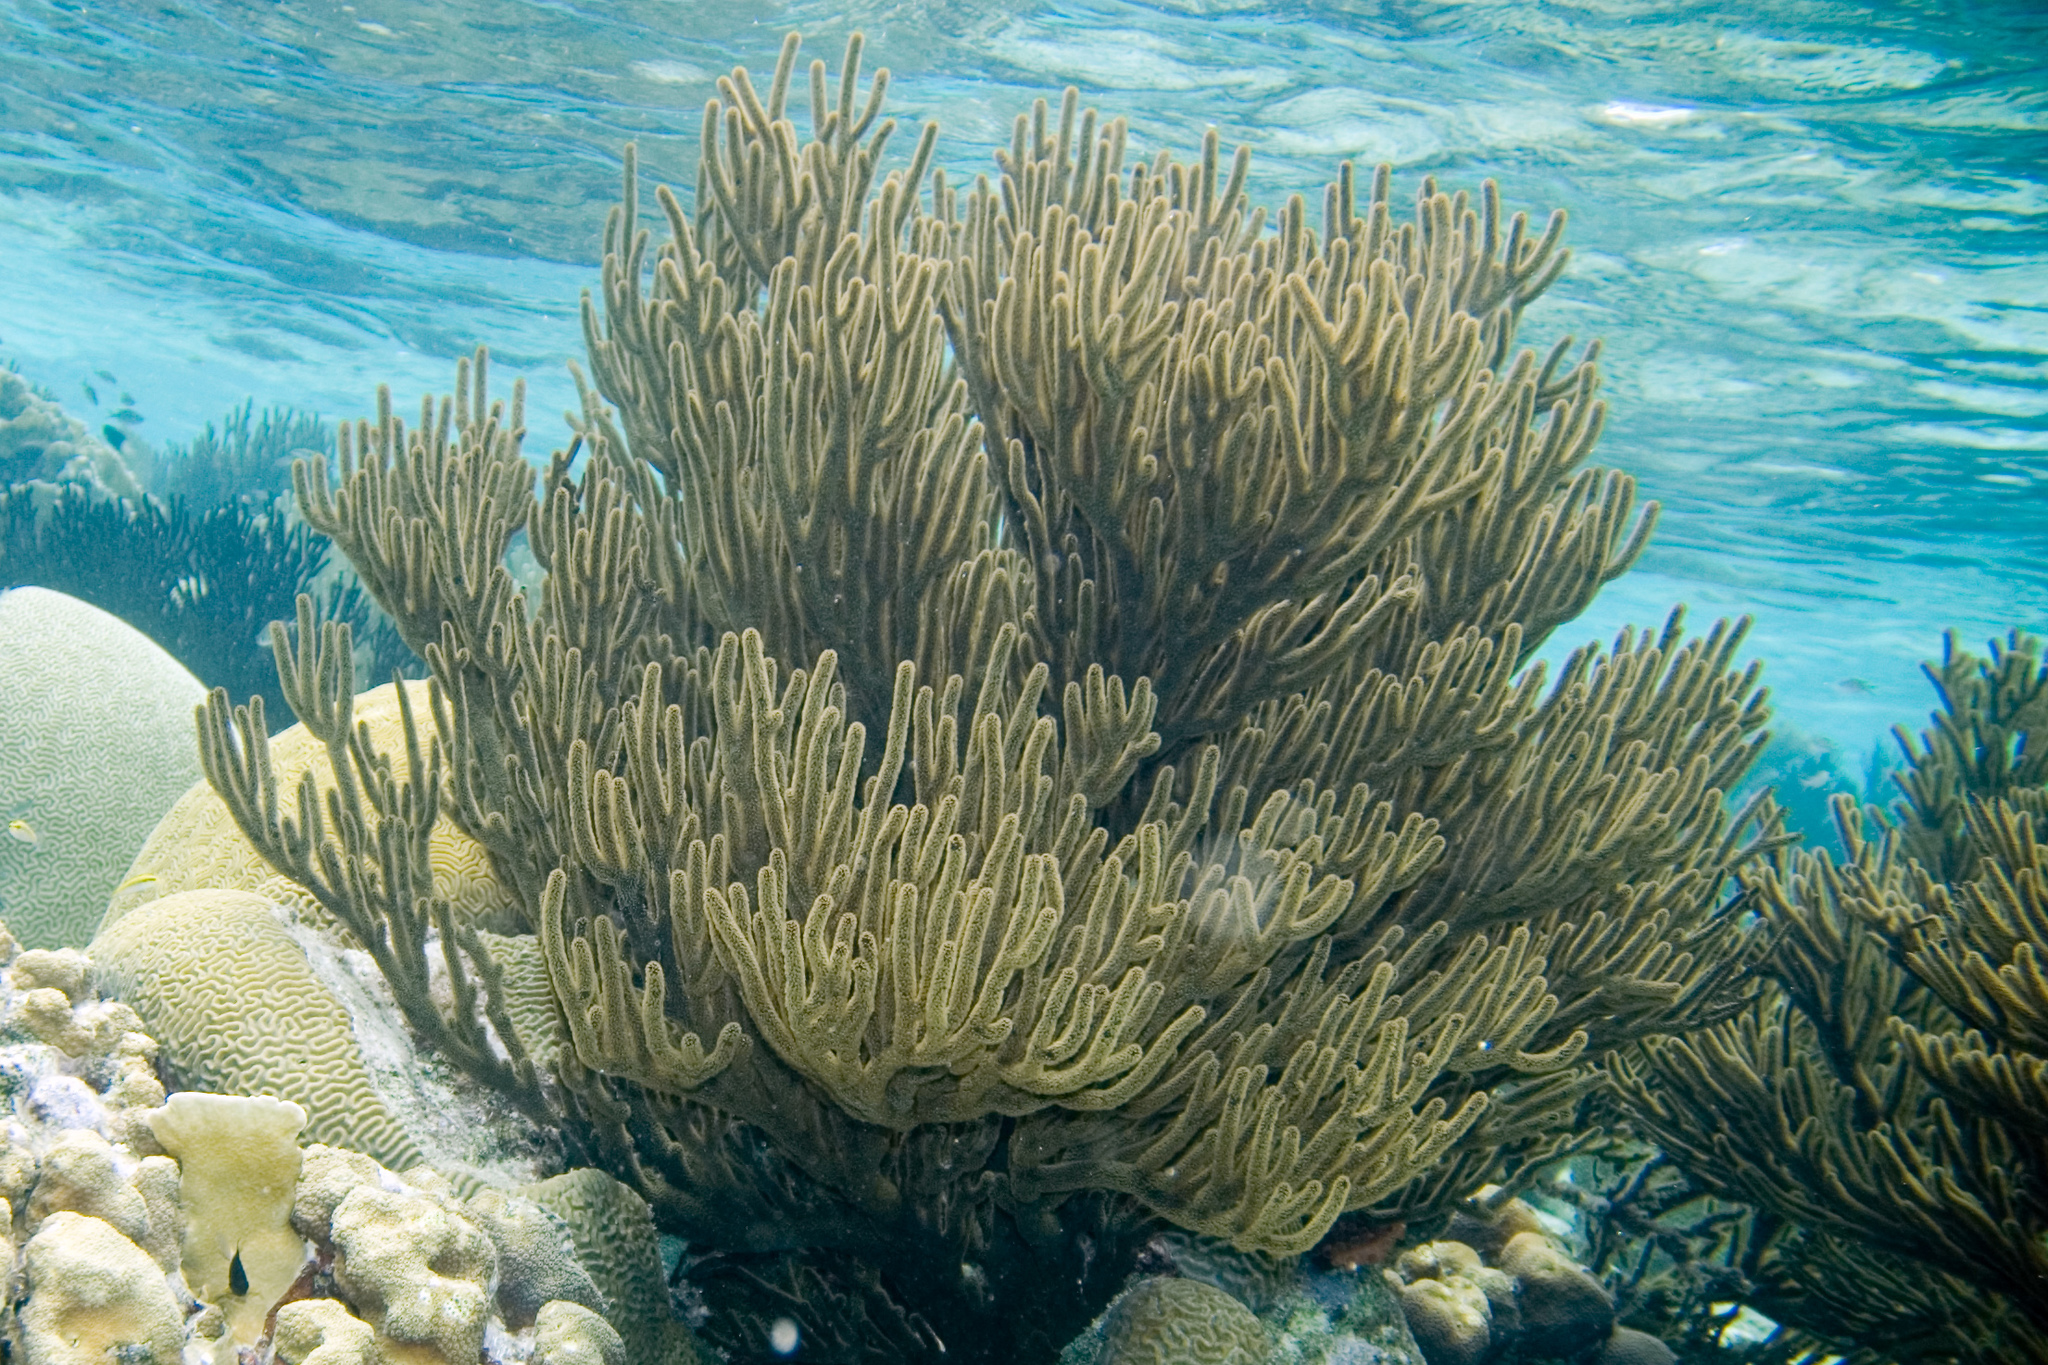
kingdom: Animalia
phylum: Cnidaria
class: Anthozoa
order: Malacalcyonacea
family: Plexauridae
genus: Plexaura
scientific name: Plexaura homomalla
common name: Black sea rod
